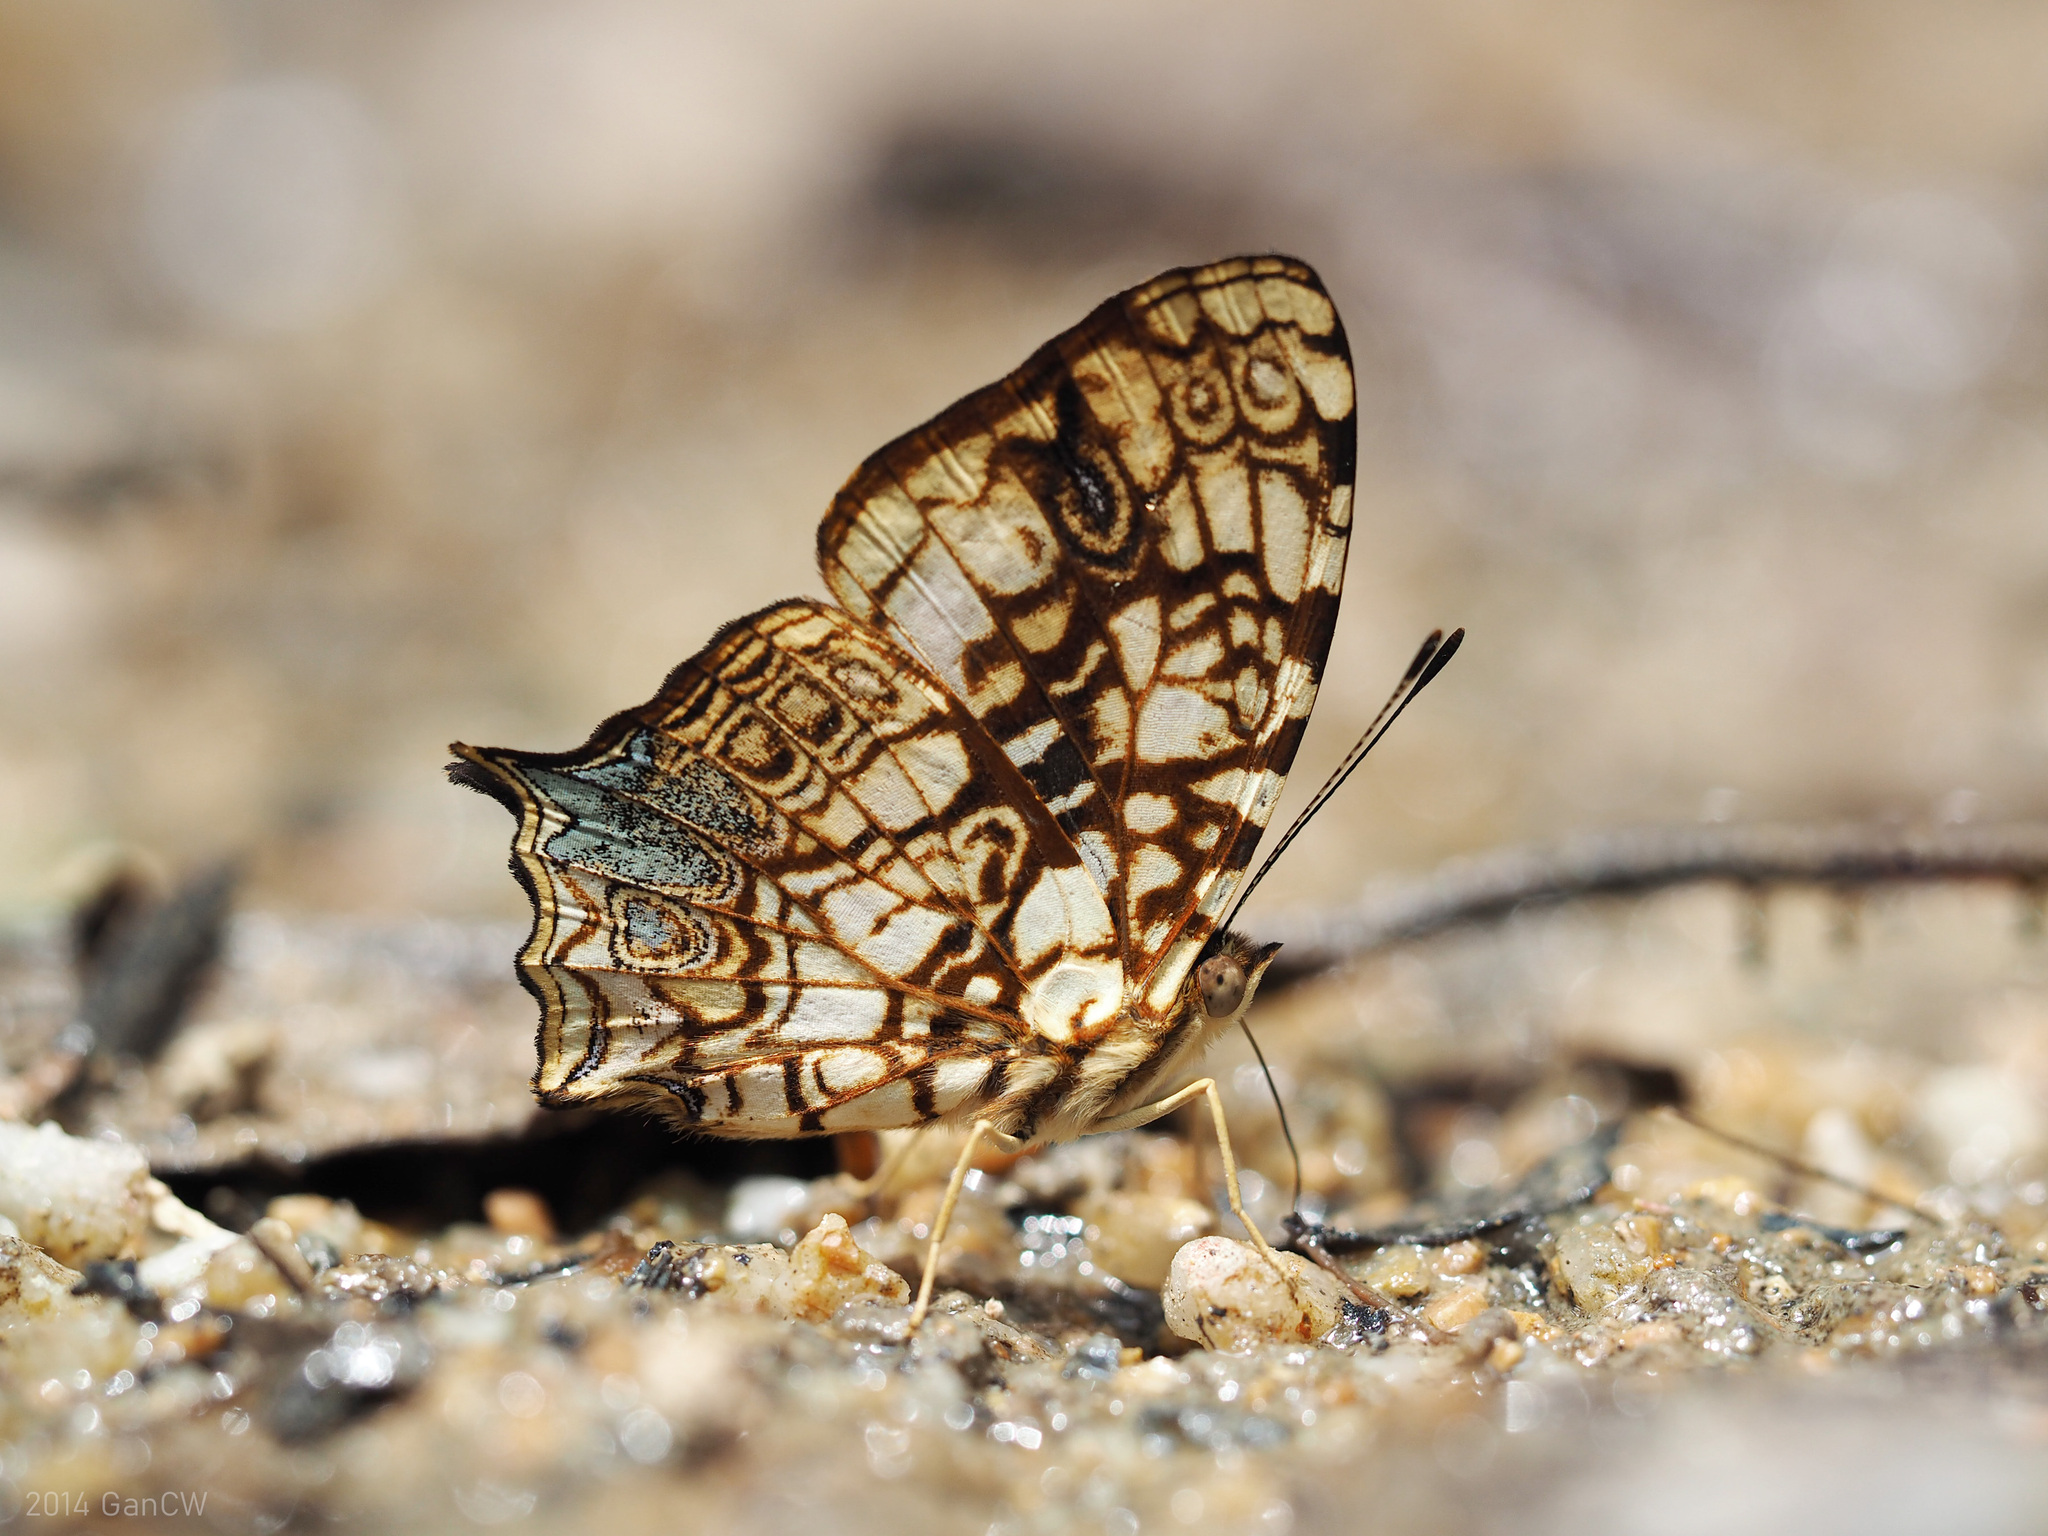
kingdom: Animalia
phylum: Arthropoda
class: Insecta
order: Lepidoptera
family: Nymphalidae
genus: Symbrenthia
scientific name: Symbrenthia hypatia
